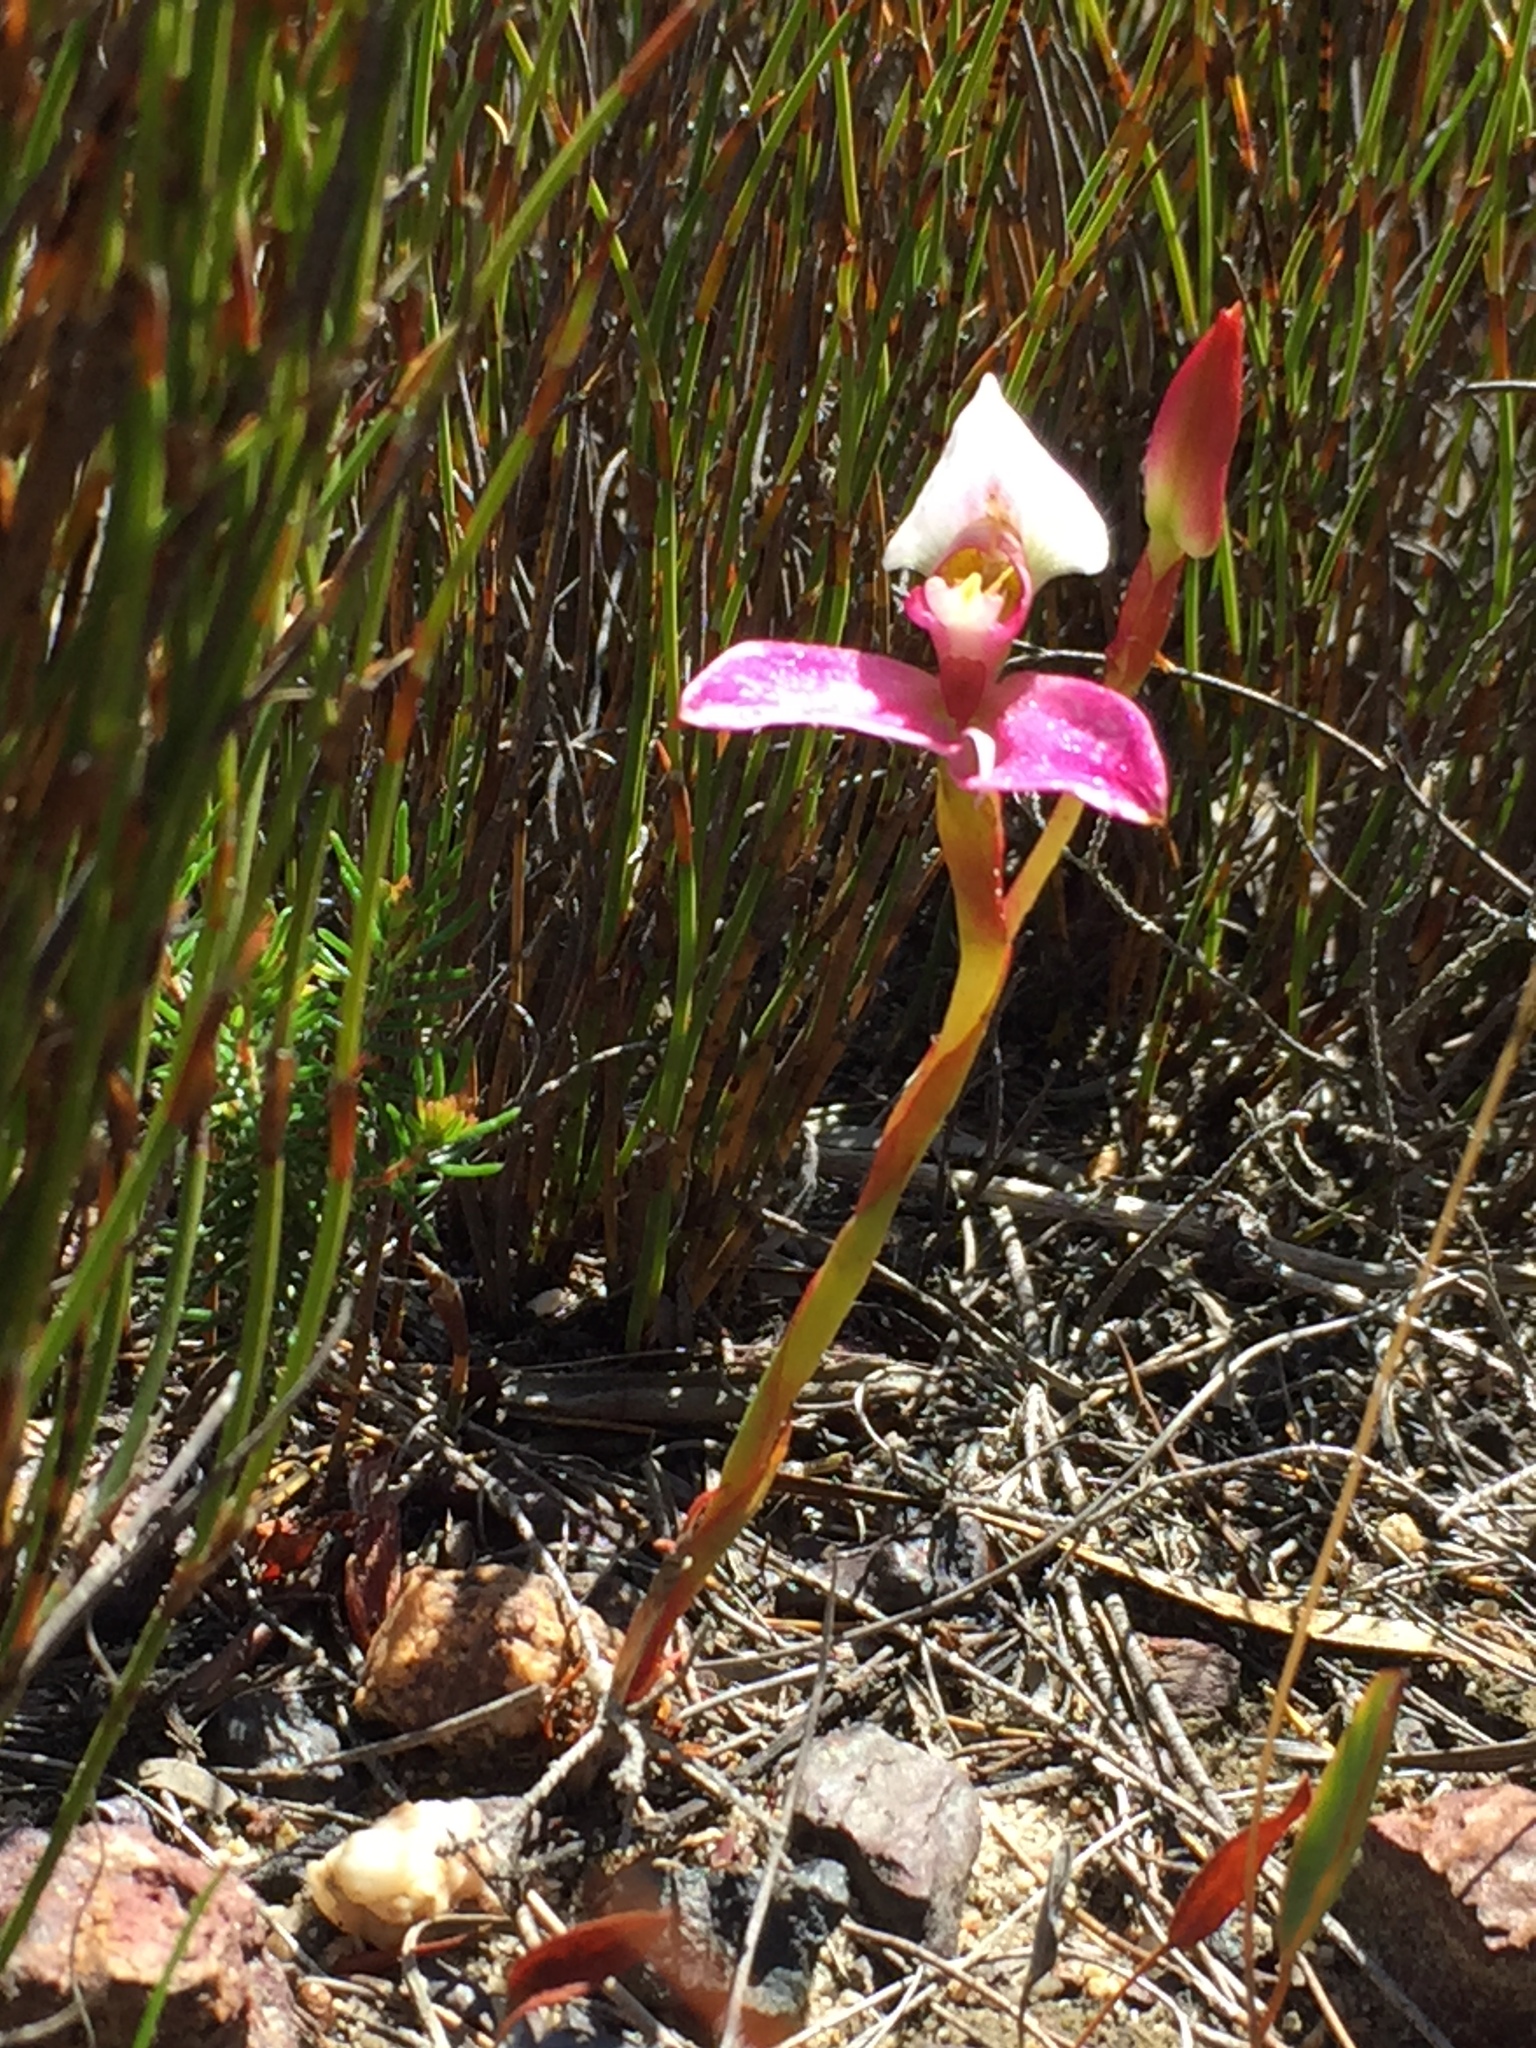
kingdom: Plantae
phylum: Tracheophyta
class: Liliopsida
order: Asparagales
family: Orchidaceae
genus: Disa
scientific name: Disa filicornis
